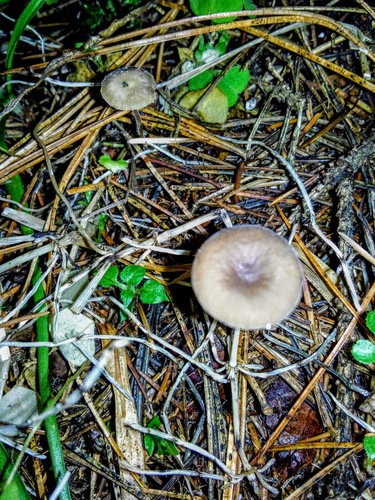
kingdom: Fungi
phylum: Basidiomycota
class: Agaricomycetes
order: Agaricales
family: Omphalotaceae
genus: Gymnopus
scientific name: Gymnopus
